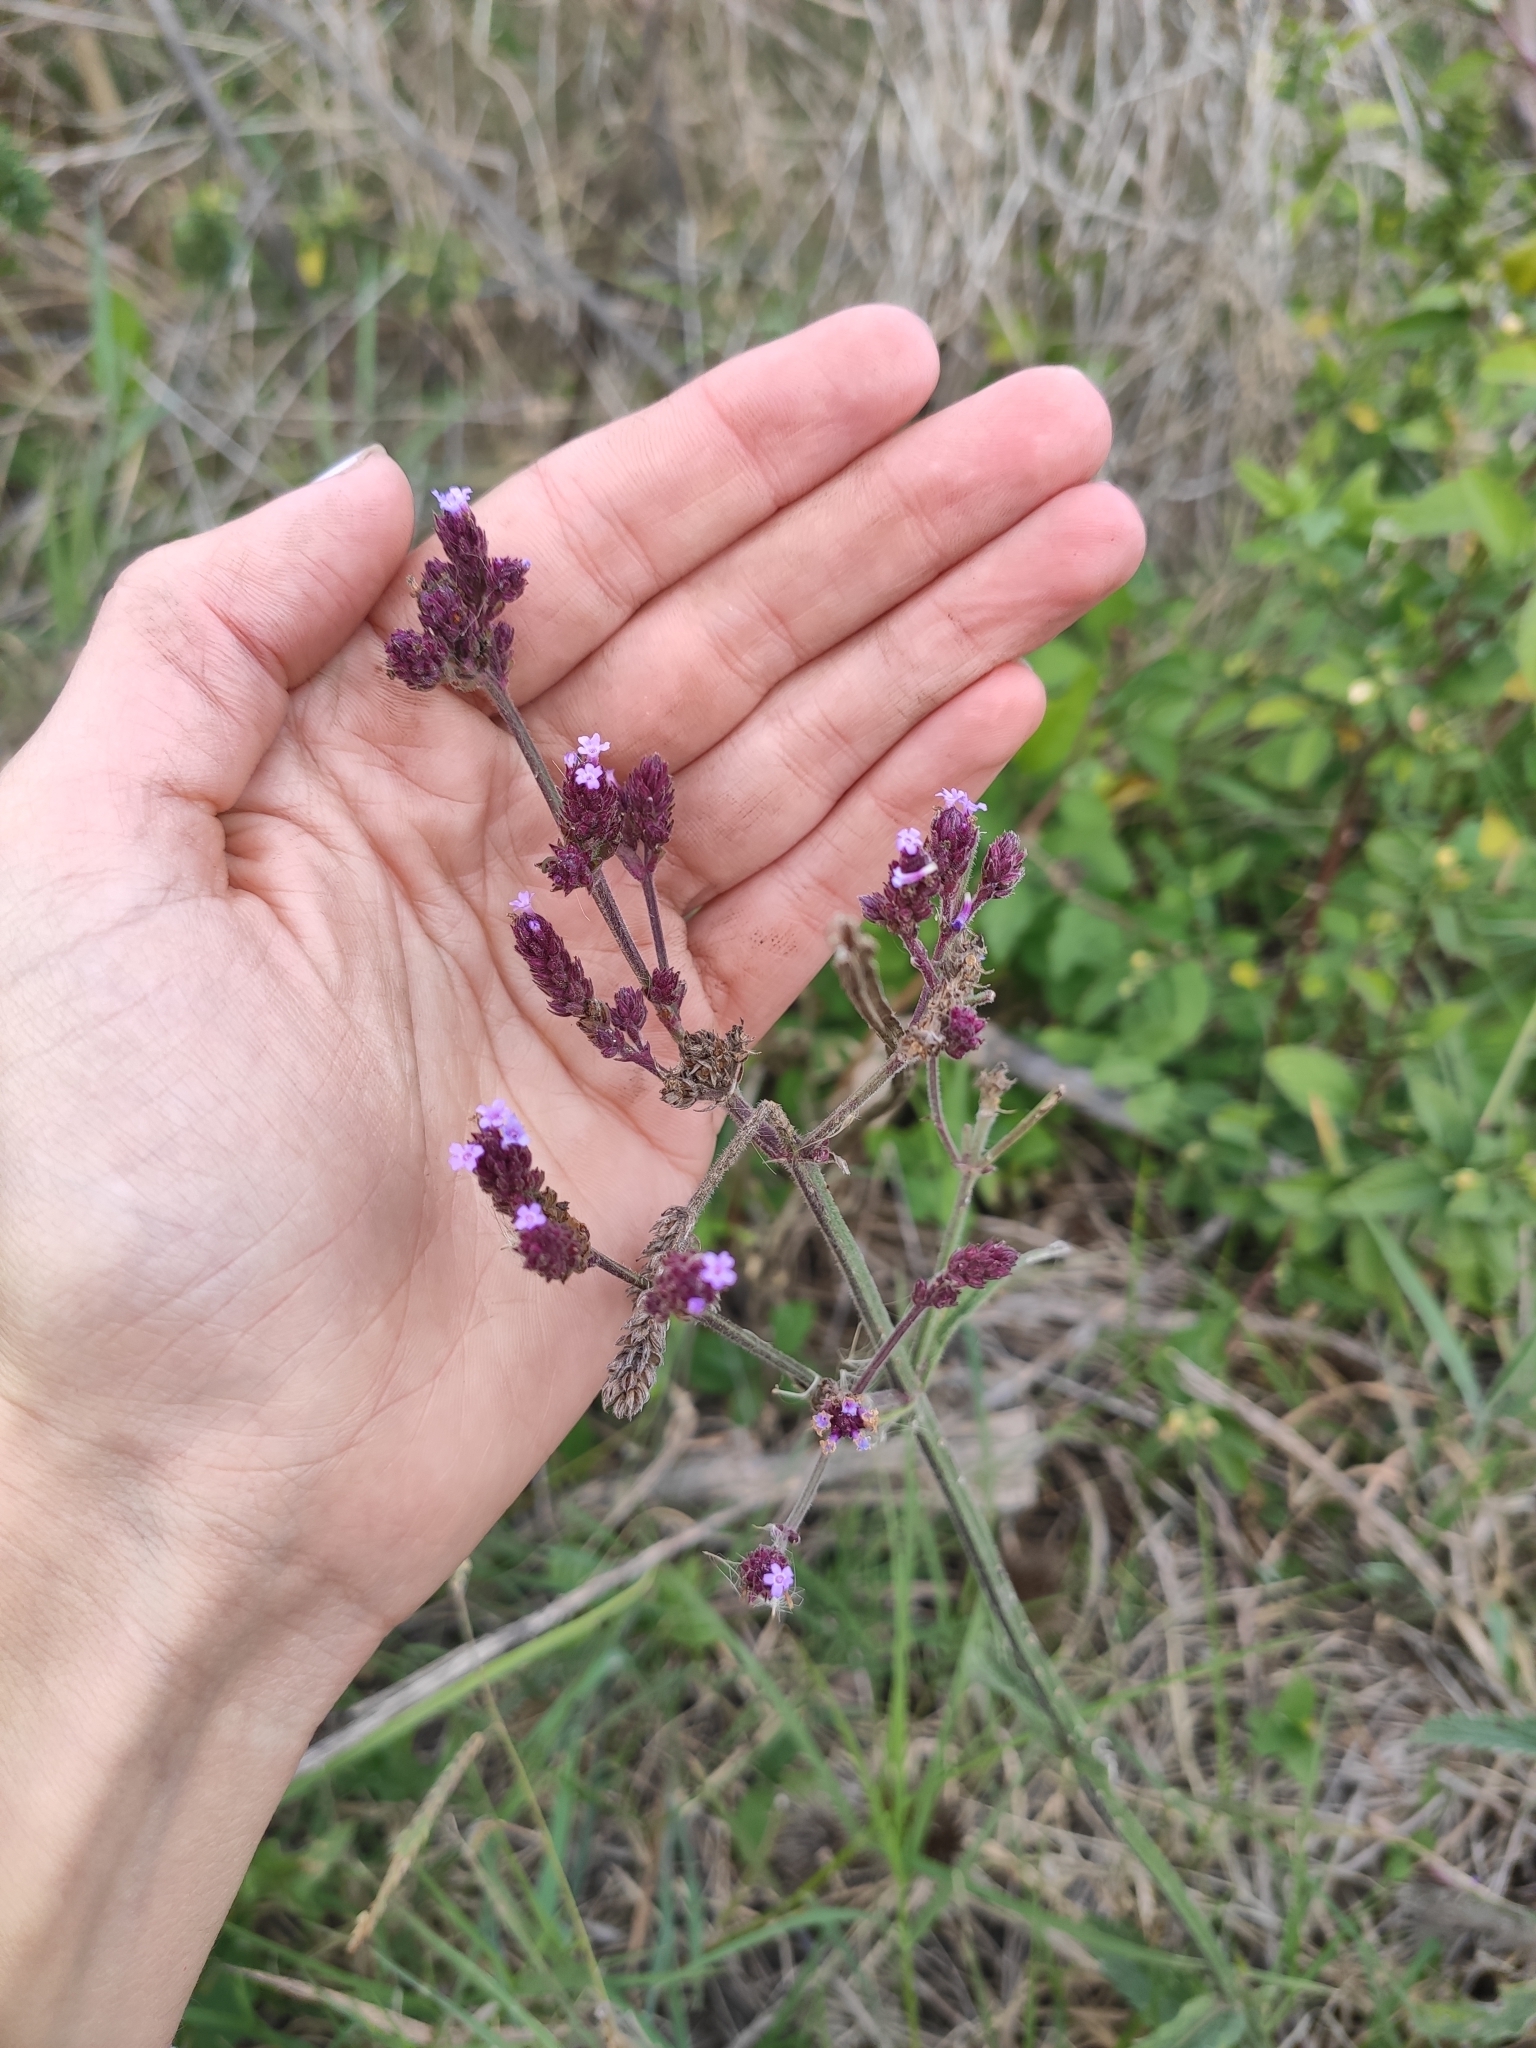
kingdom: Plantae
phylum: Tracheophyta
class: Magnoliopsida
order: Lamiales
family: Verbenaceae
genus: Verbena
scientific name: Verbena bonariensis
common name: Purpletop vervain
